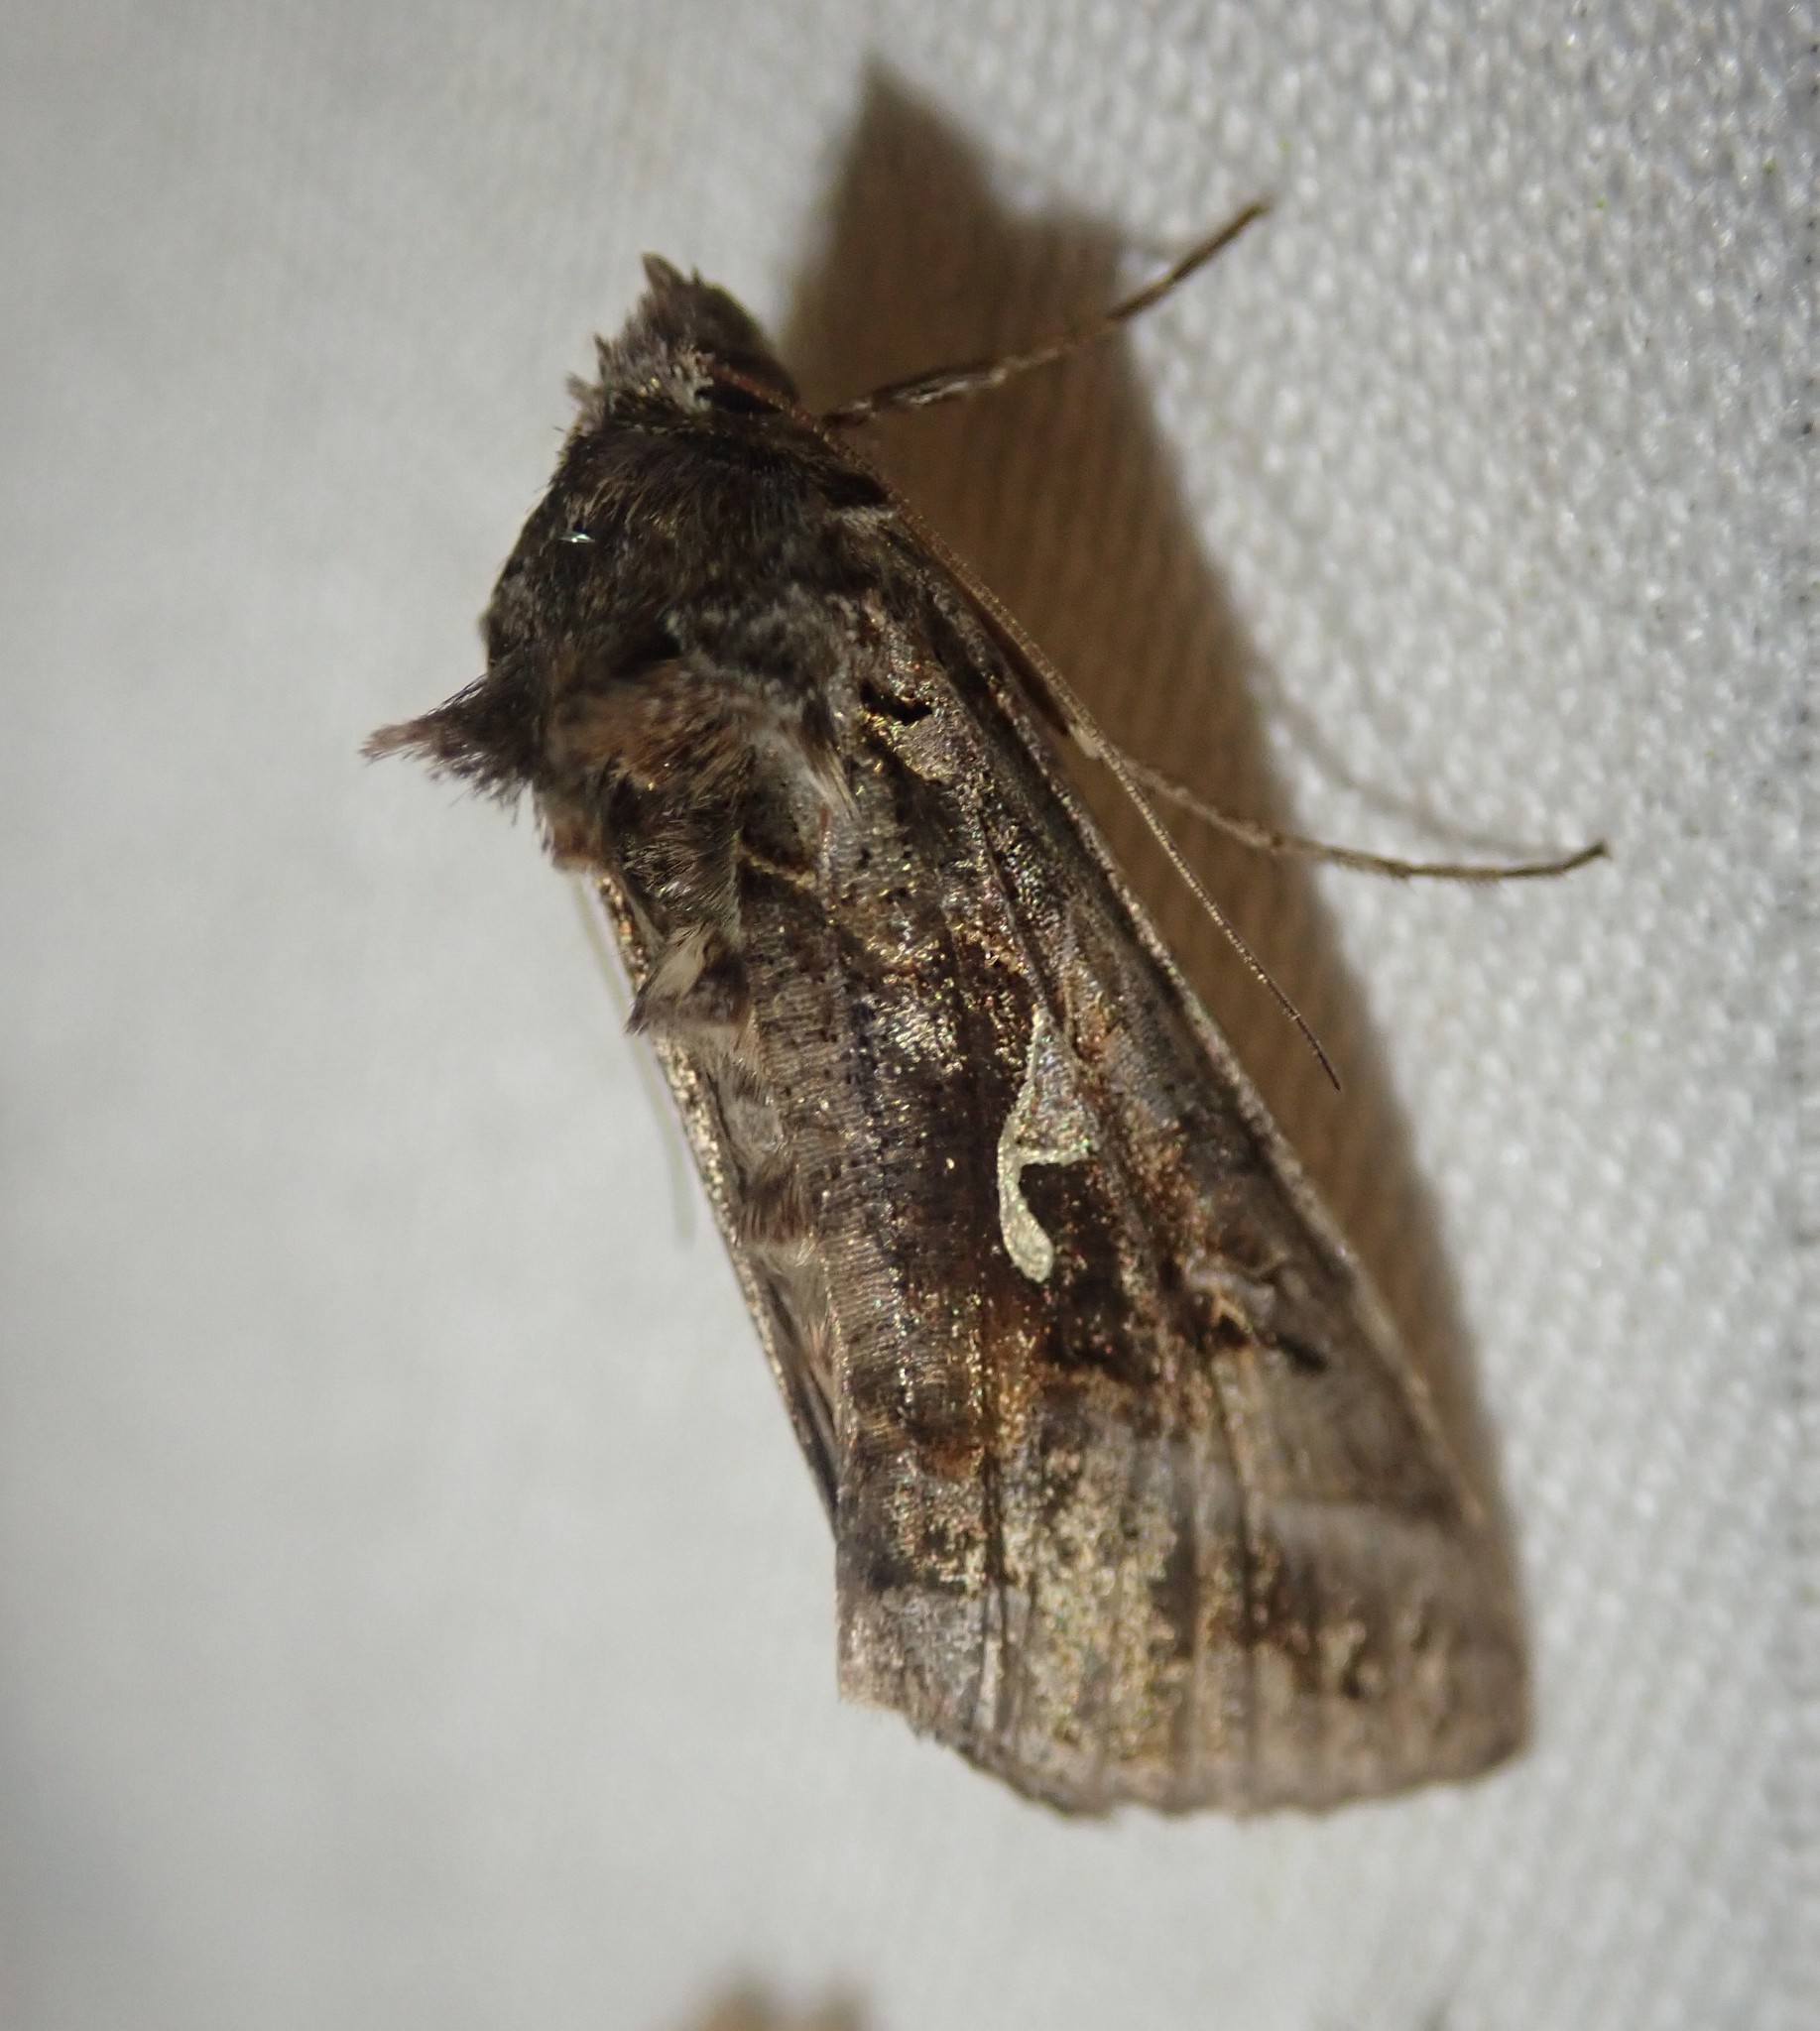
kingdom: Animalia
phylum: Arthropoda
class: Insecta
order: Lepidoptera
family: Noctuidae
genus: Autographa
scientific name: Autographa gamma
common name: Silver y
